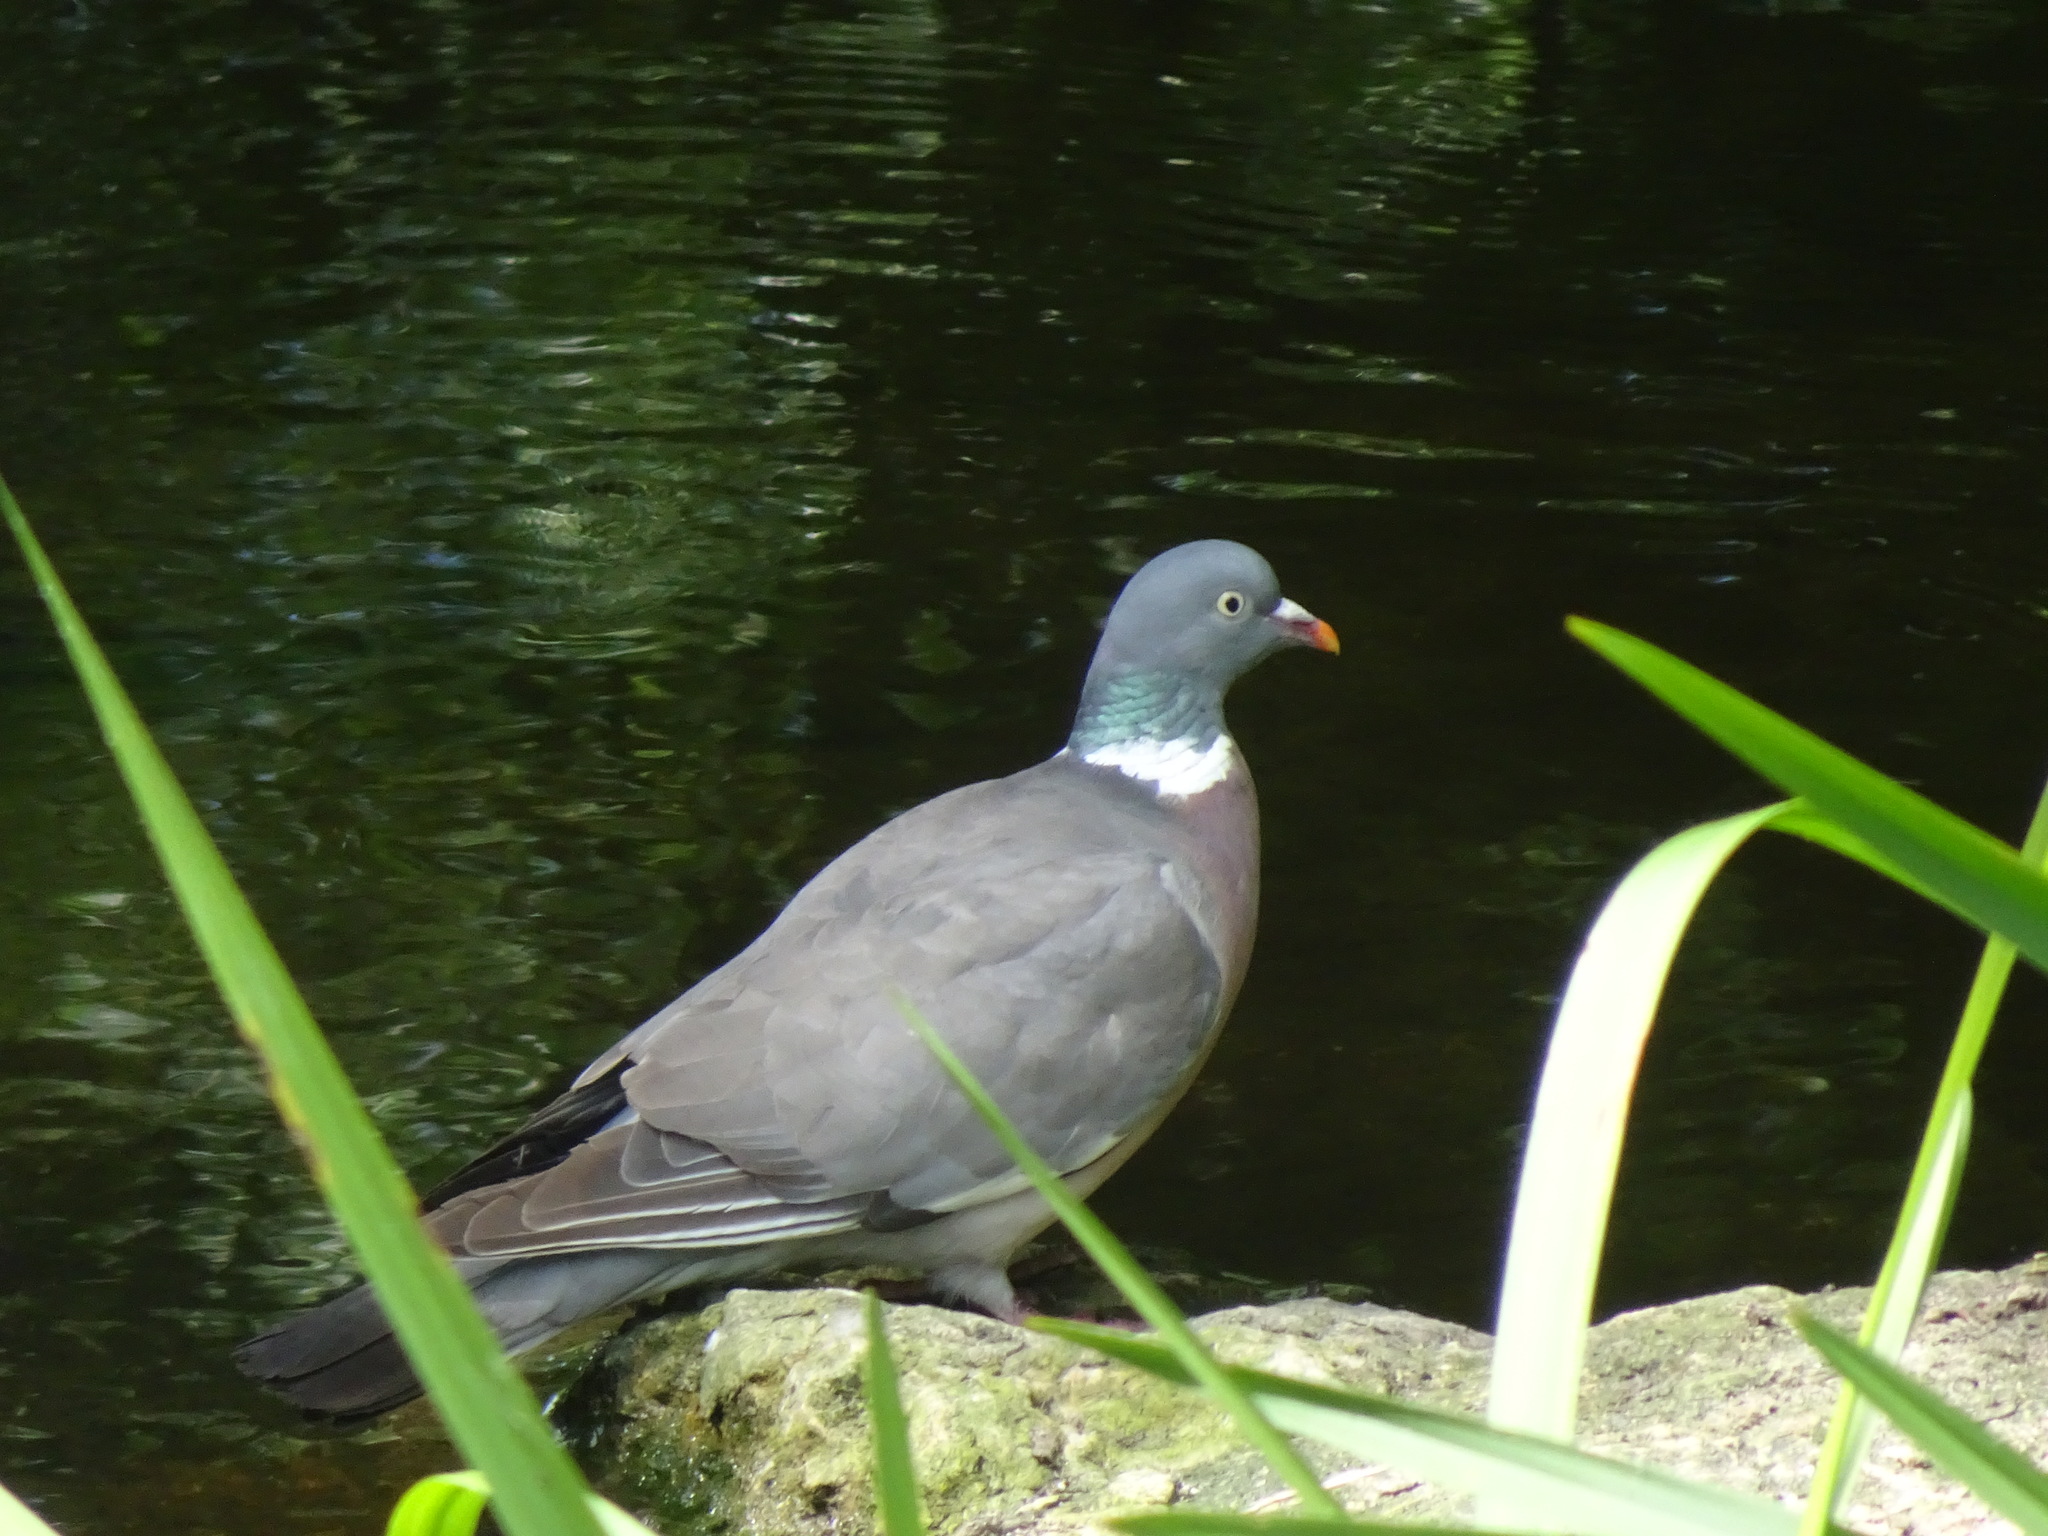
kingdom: Animalia
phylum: Chordata
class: Aves
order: Columbiformes
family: Columbidae
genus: Columba
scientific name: Columba palumbus
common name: Common wood pigeon
